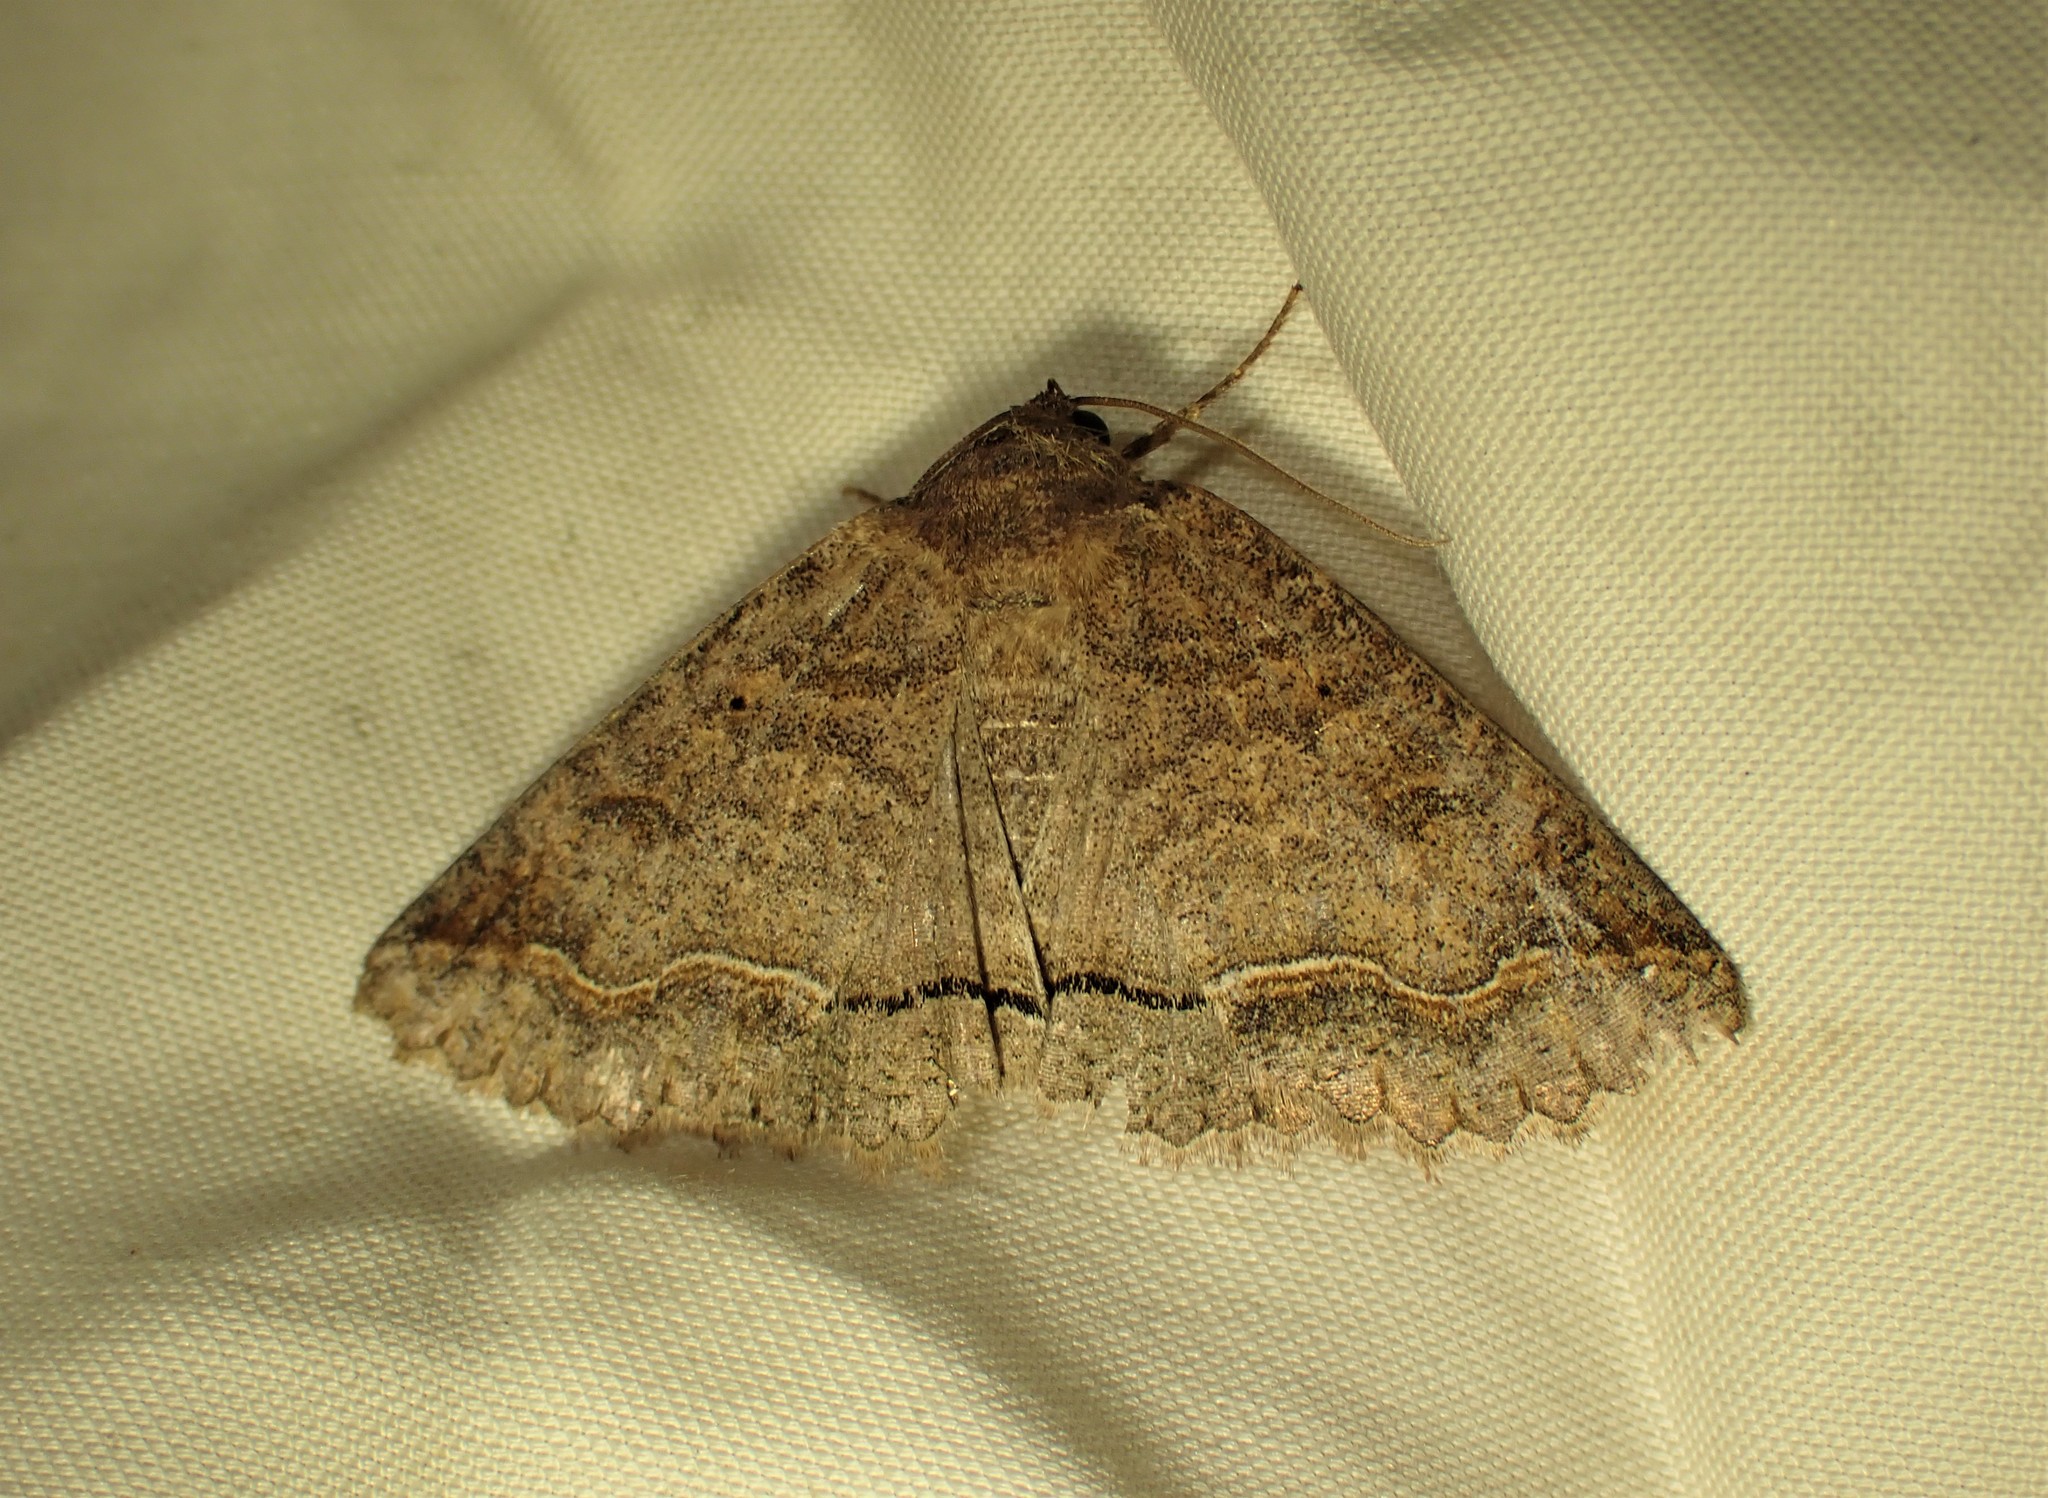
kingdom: Animalia
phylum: Arthropoda
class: Insecta
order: Lepidoptera
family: Erebidae
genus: Zale
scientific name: Zale unilineata
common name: One-lined zale moth
